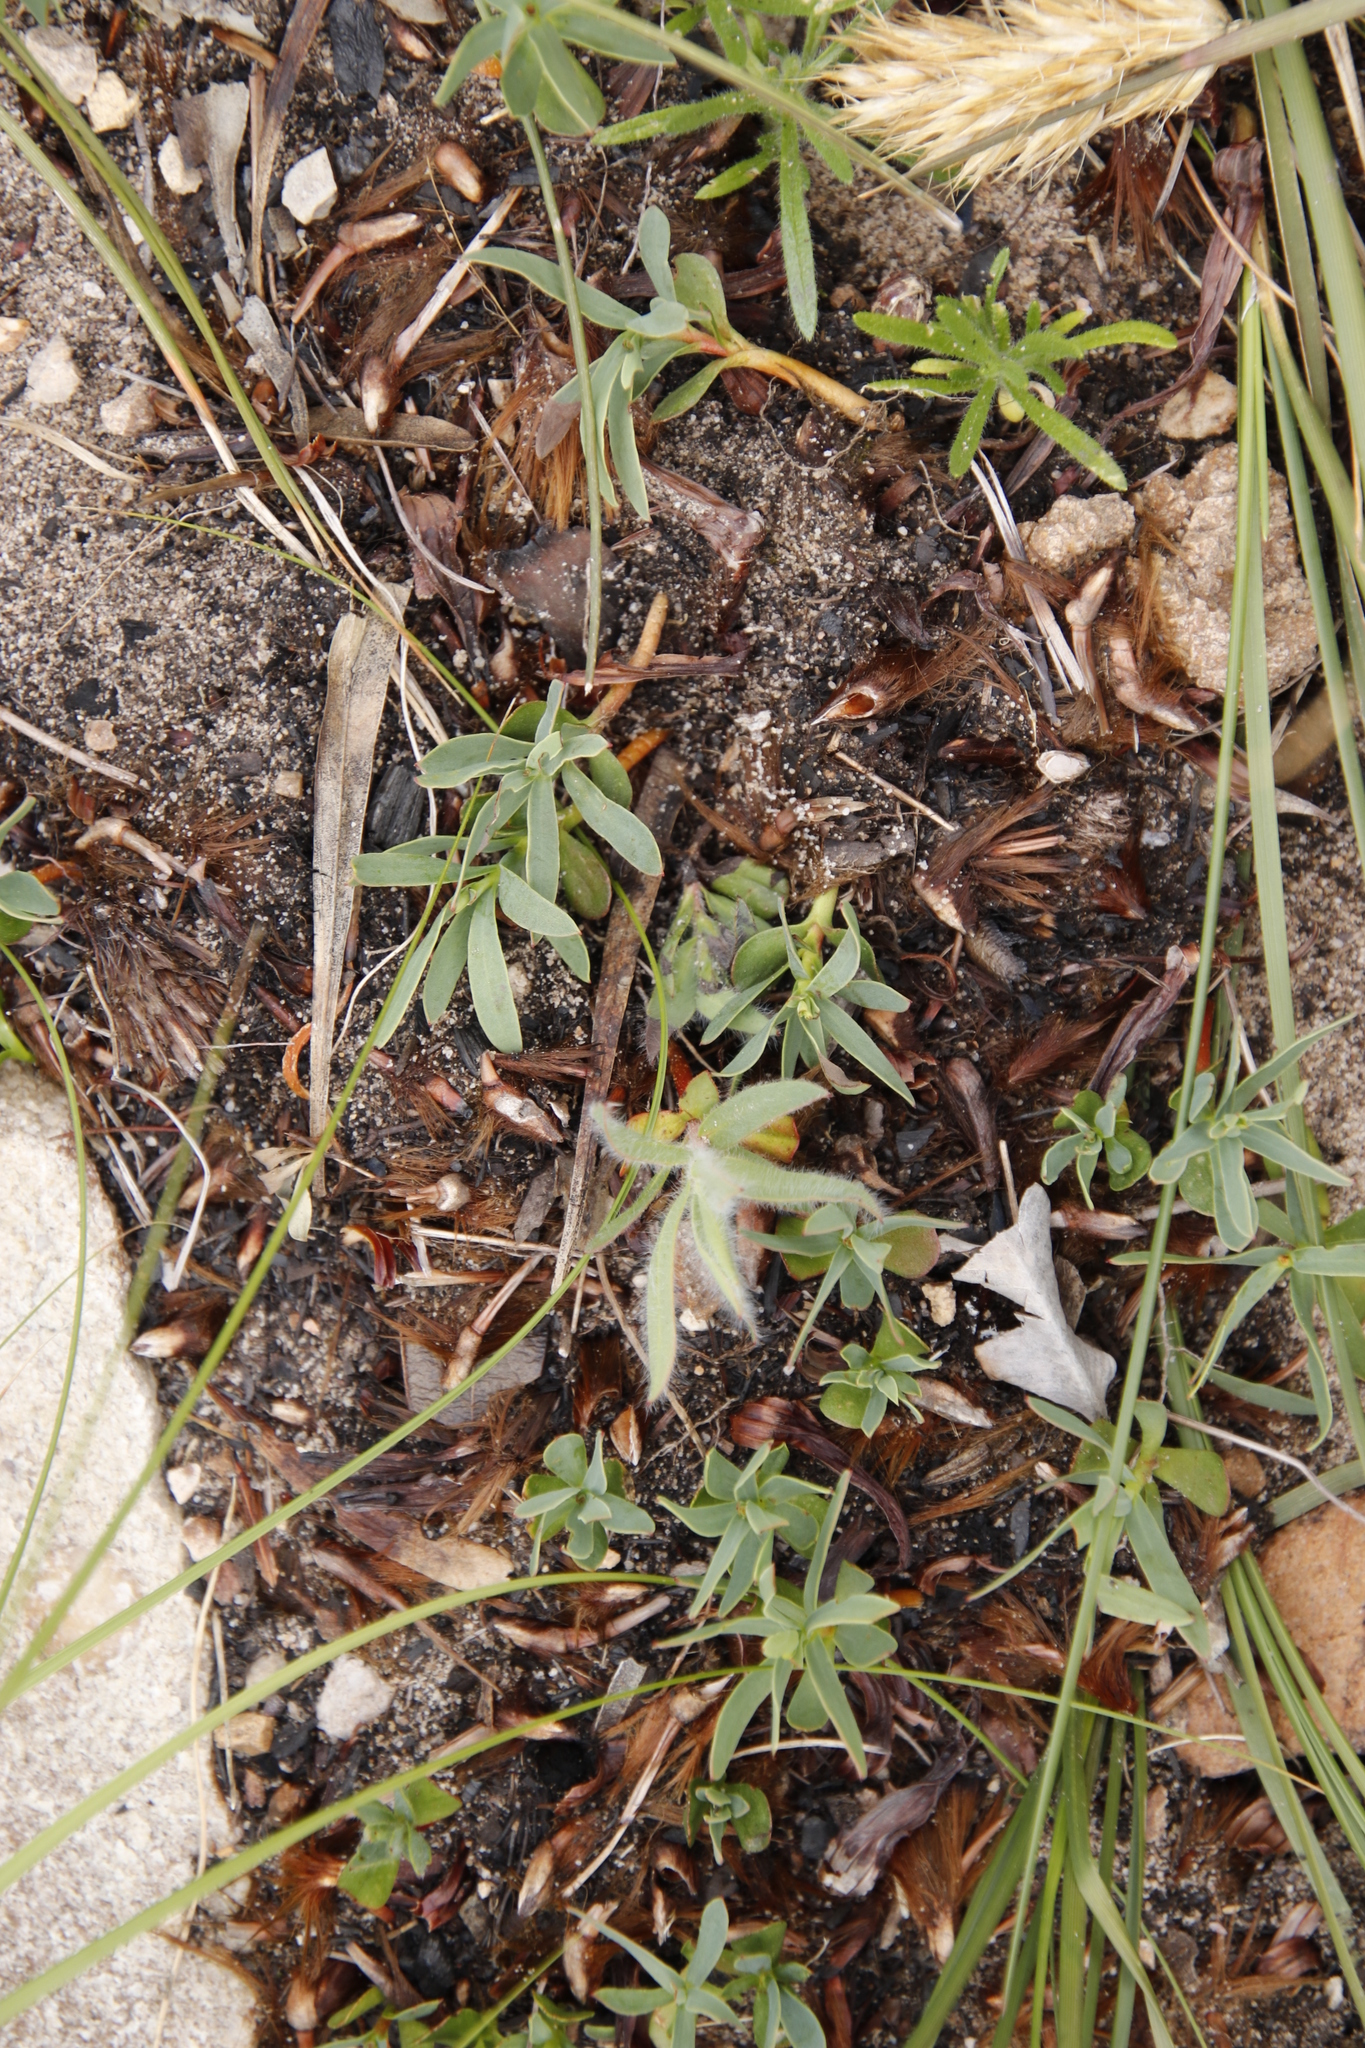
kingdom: Plantae
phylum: Tracheophyta
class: Magnoliopsida
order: Proteales
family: Proteaceae
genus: Protea
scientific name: Protea repens
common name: Sugarbush
